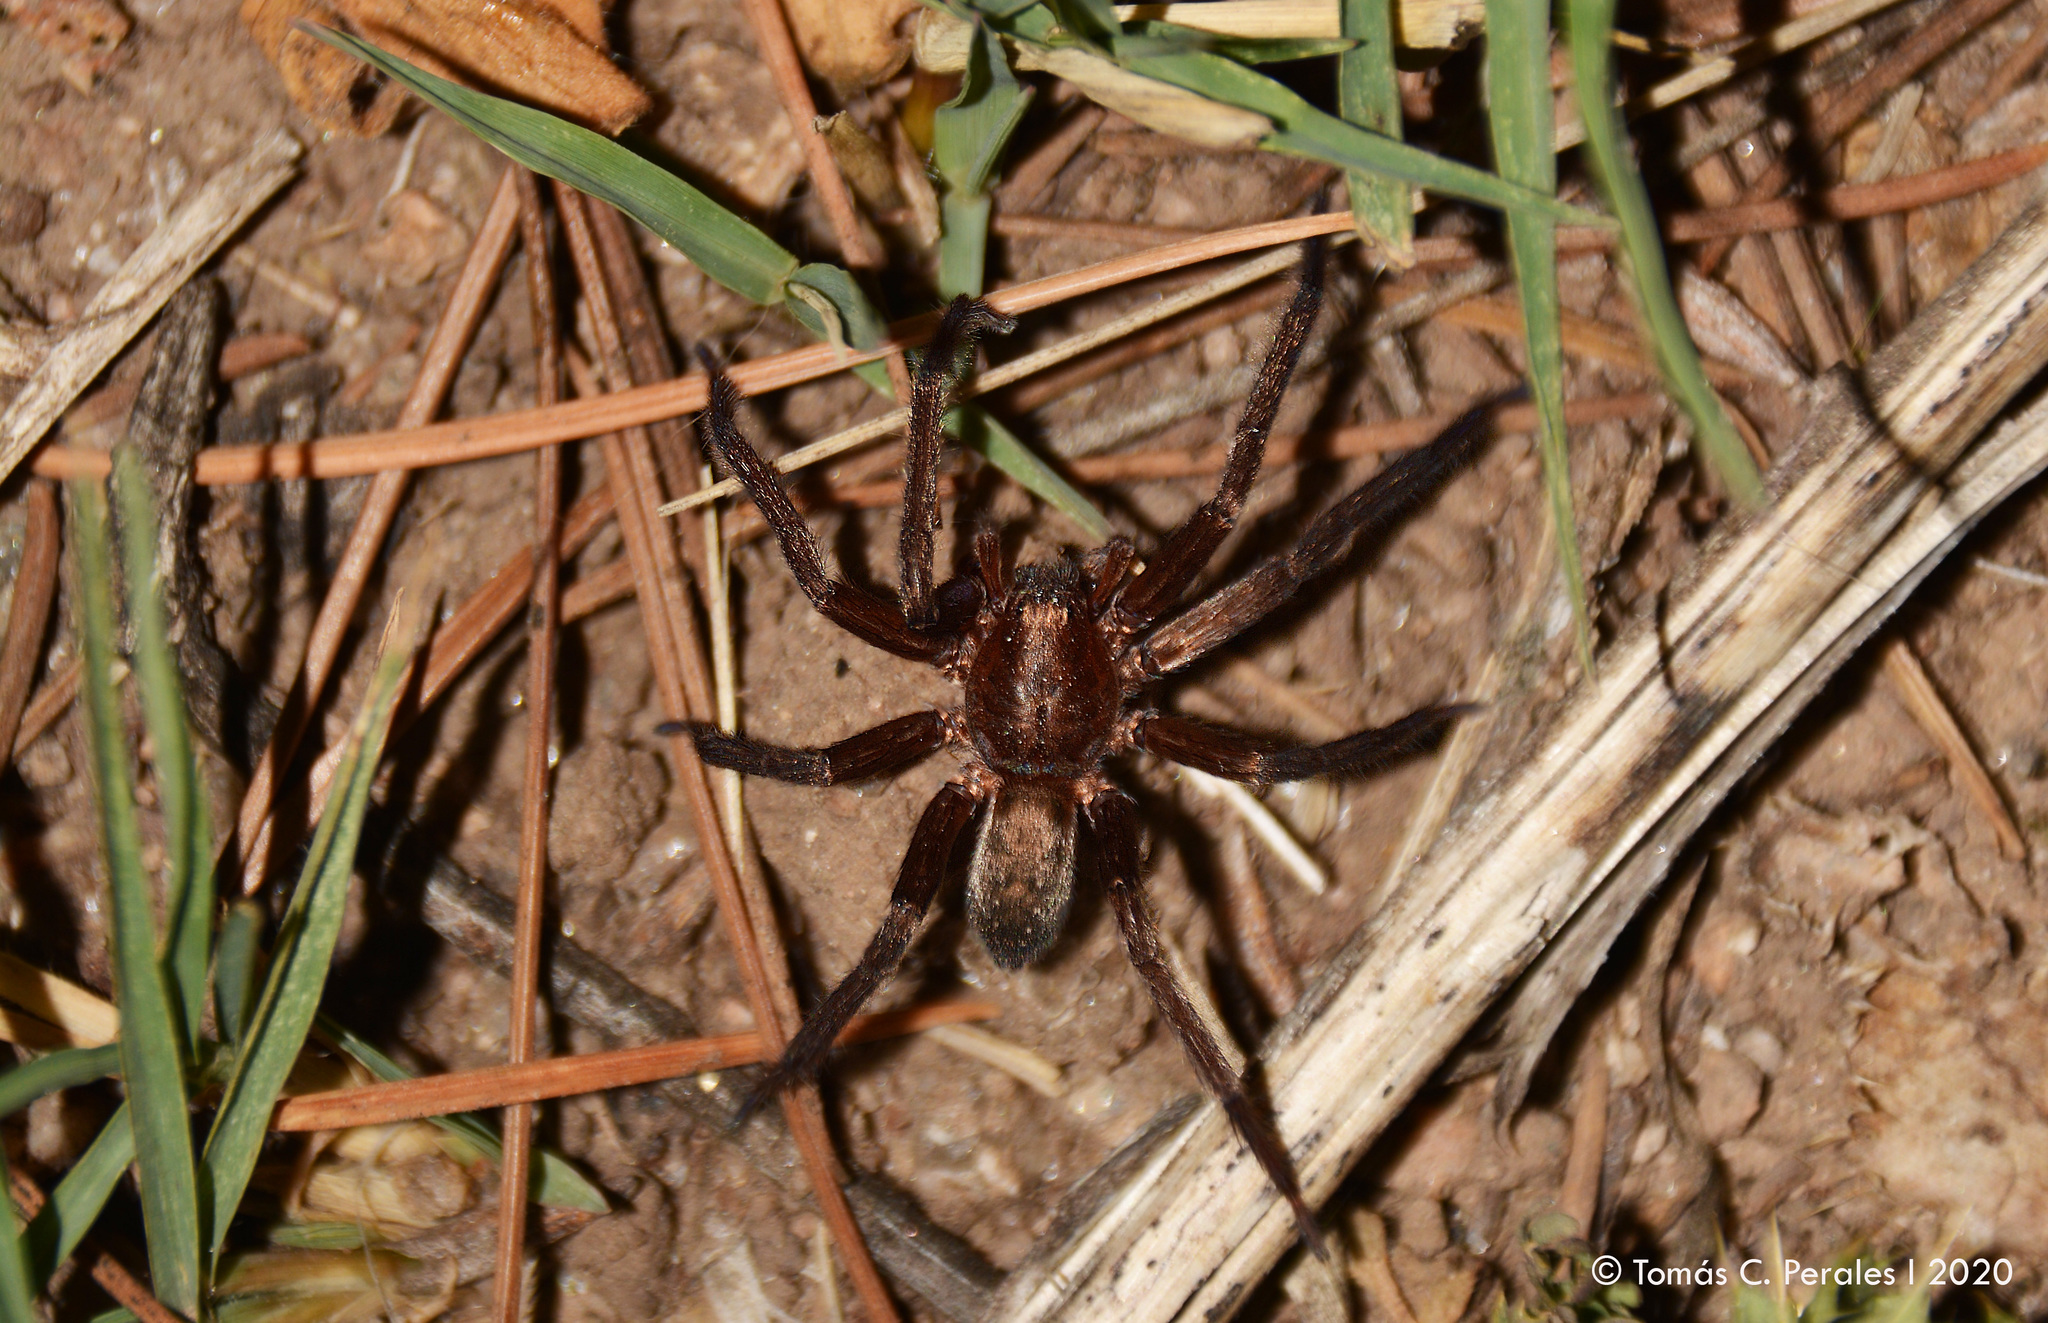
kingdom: Animalia
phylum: Arthropoda
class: Arachnida
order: Araneae
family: Ctenidae
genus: Asthenoctenus
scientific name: Asthenoctenus borellii
